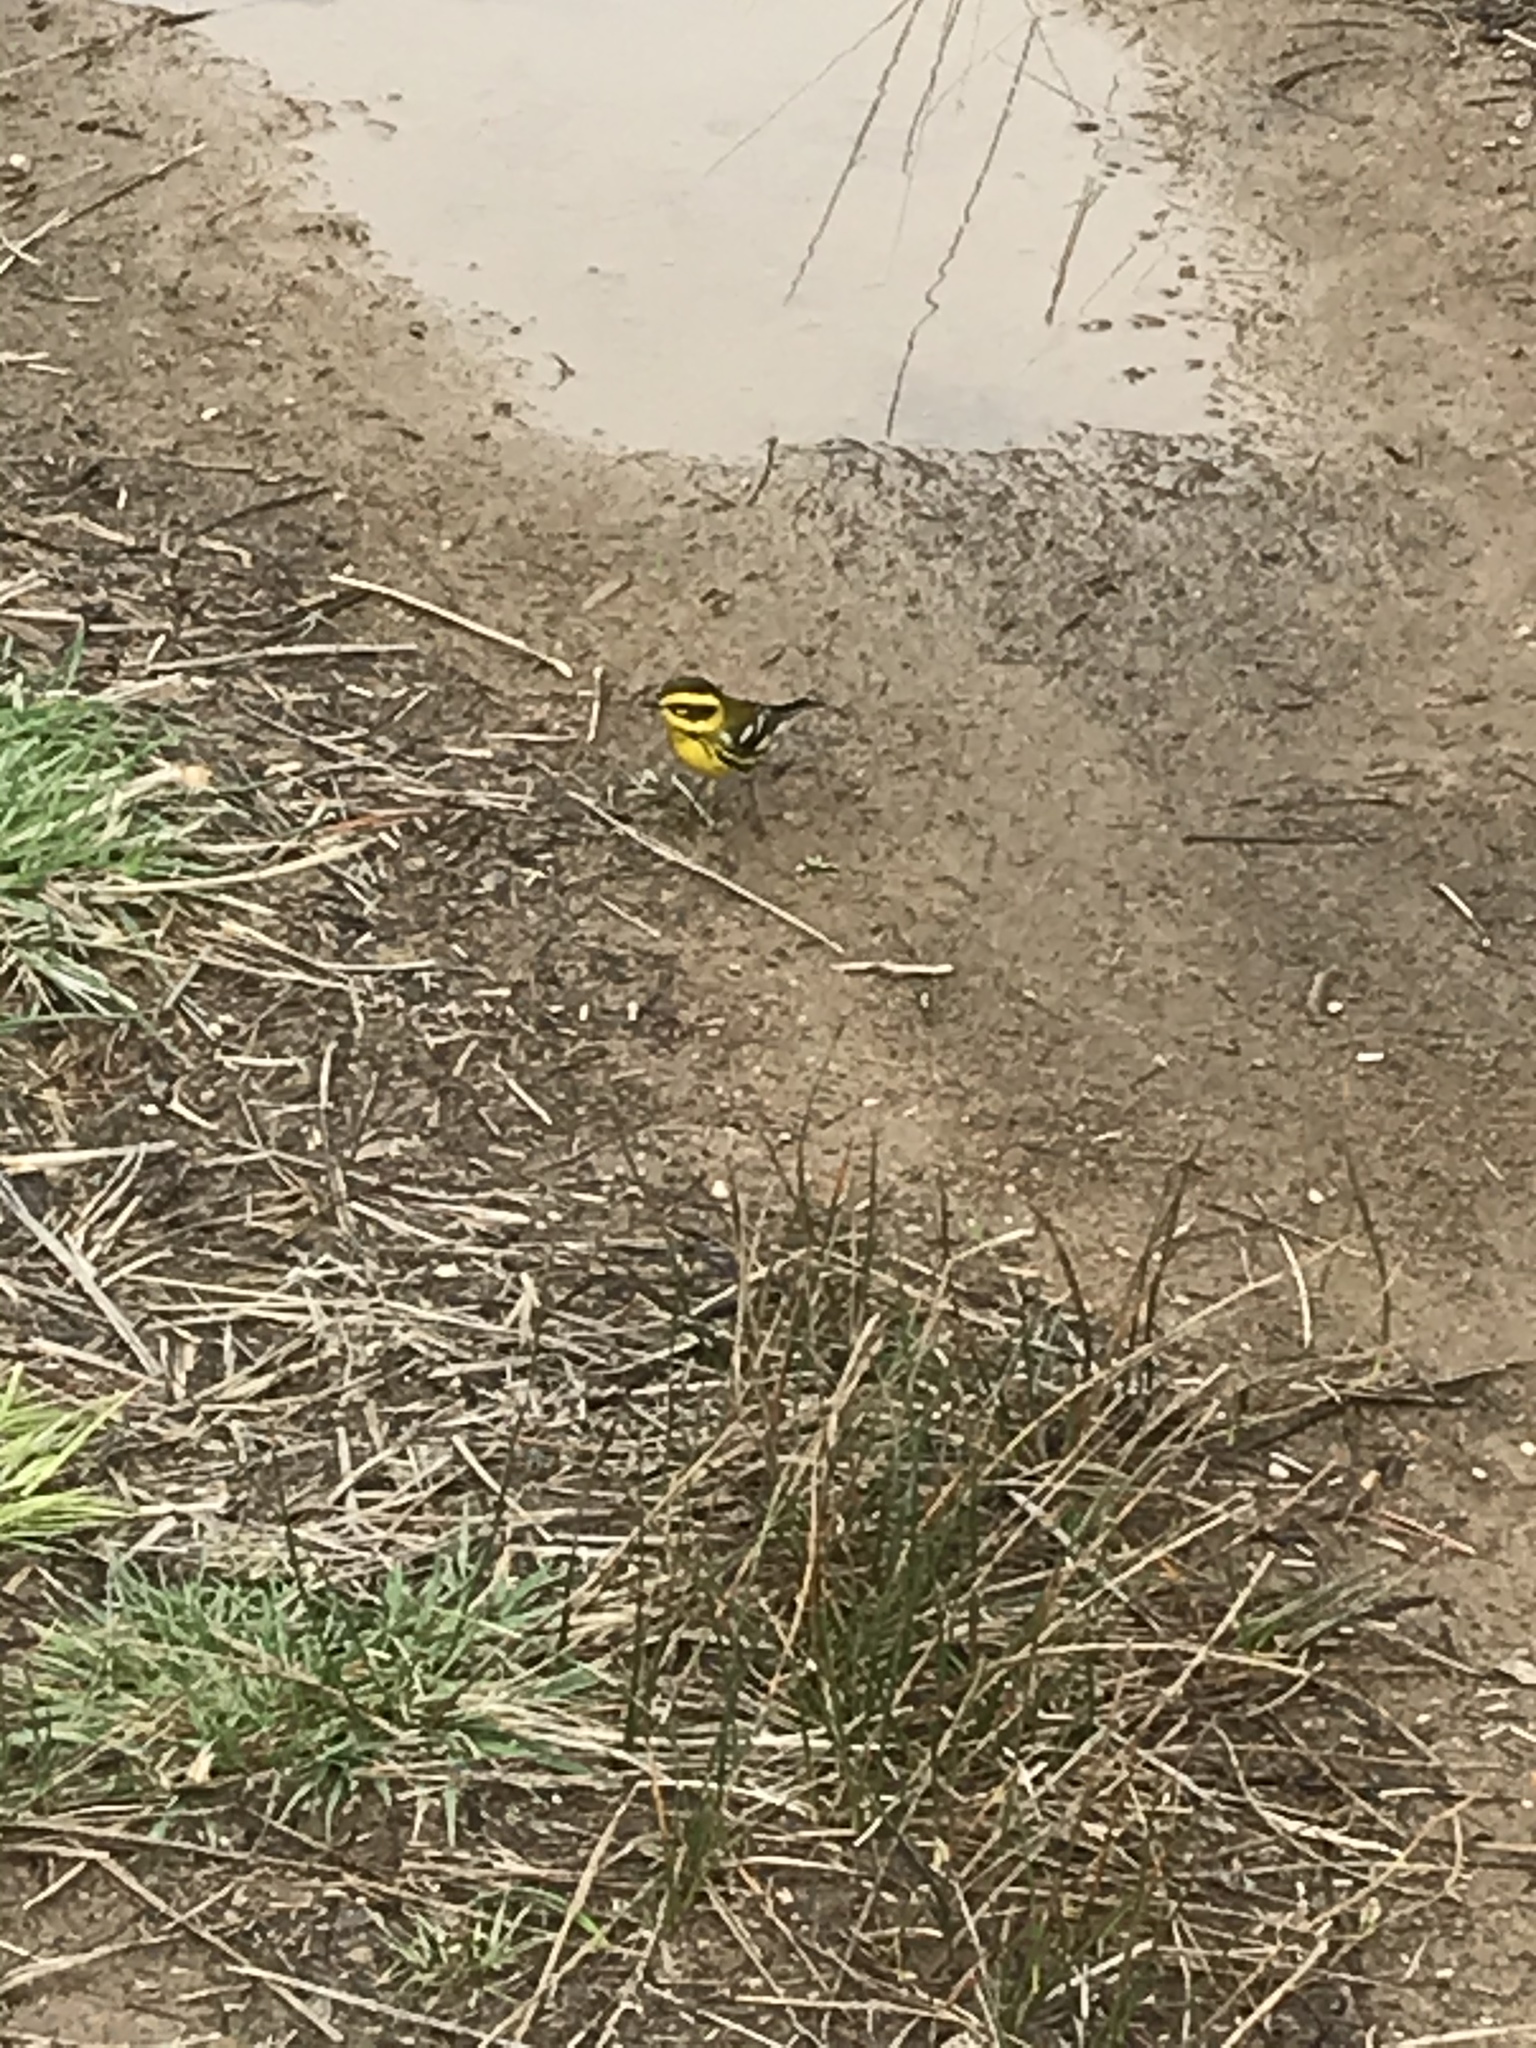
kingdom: Animalia
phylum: Chordata
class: Aves
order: Passeriformes
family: Parulidae
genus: Setophaga
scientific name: Setophaga townsendi
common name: Townsend's warbler
